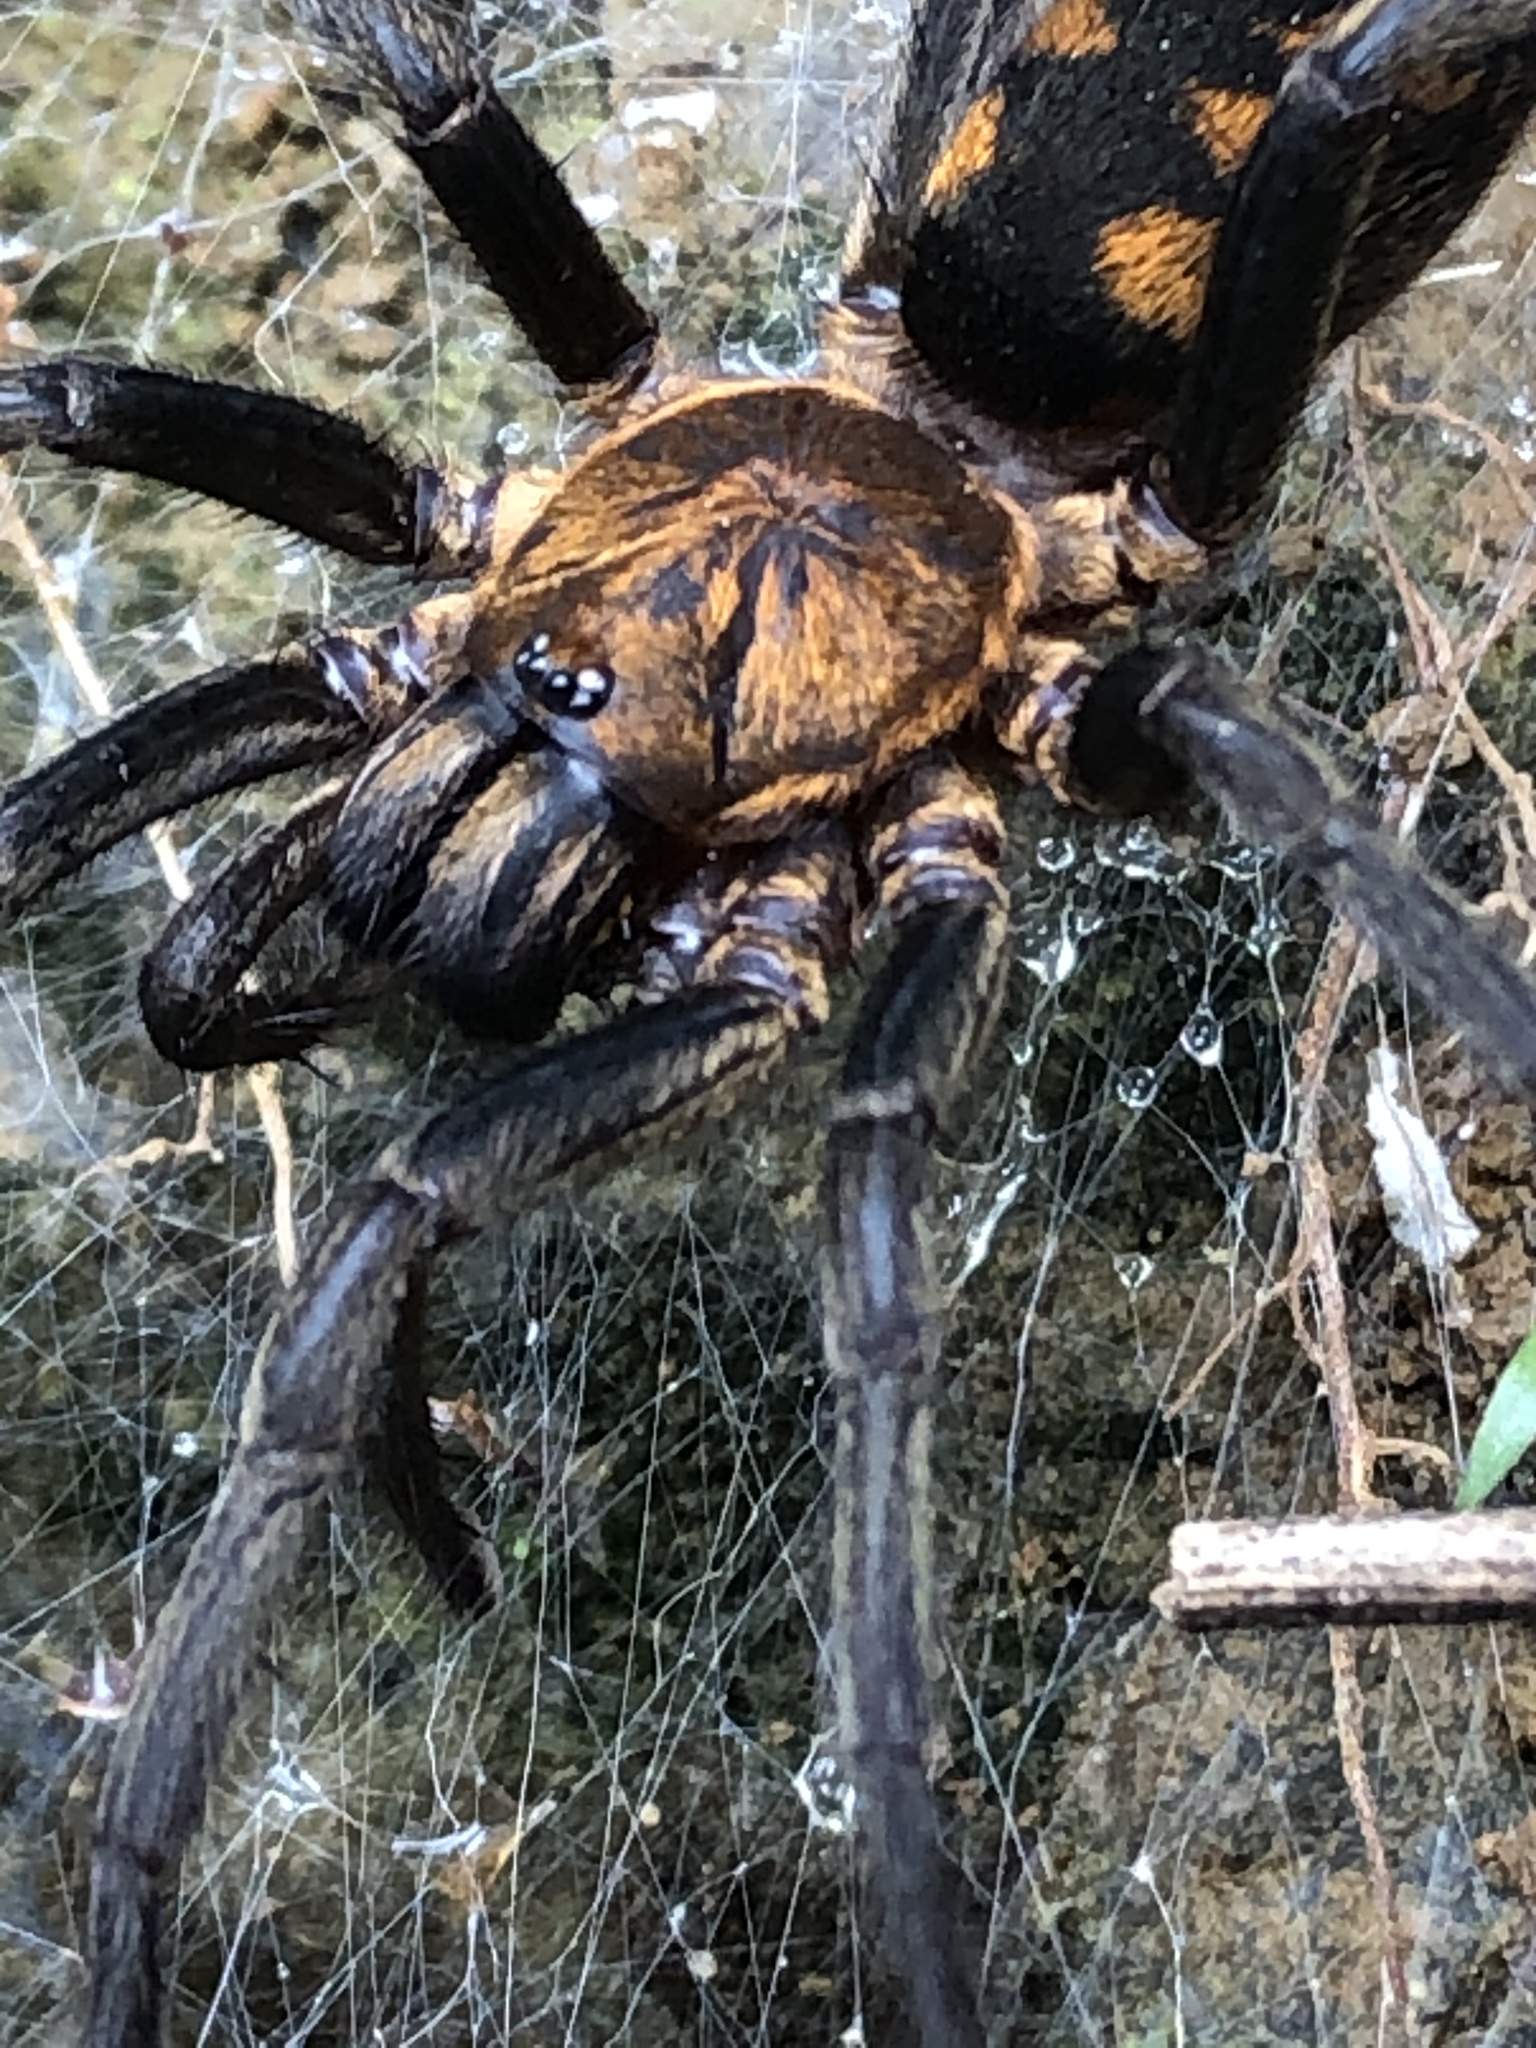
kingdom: Animalia
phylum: Arthropoda
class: Arachnida
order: Araneae
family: Dipluridae
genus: Linothele
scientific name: Linothele fallax
